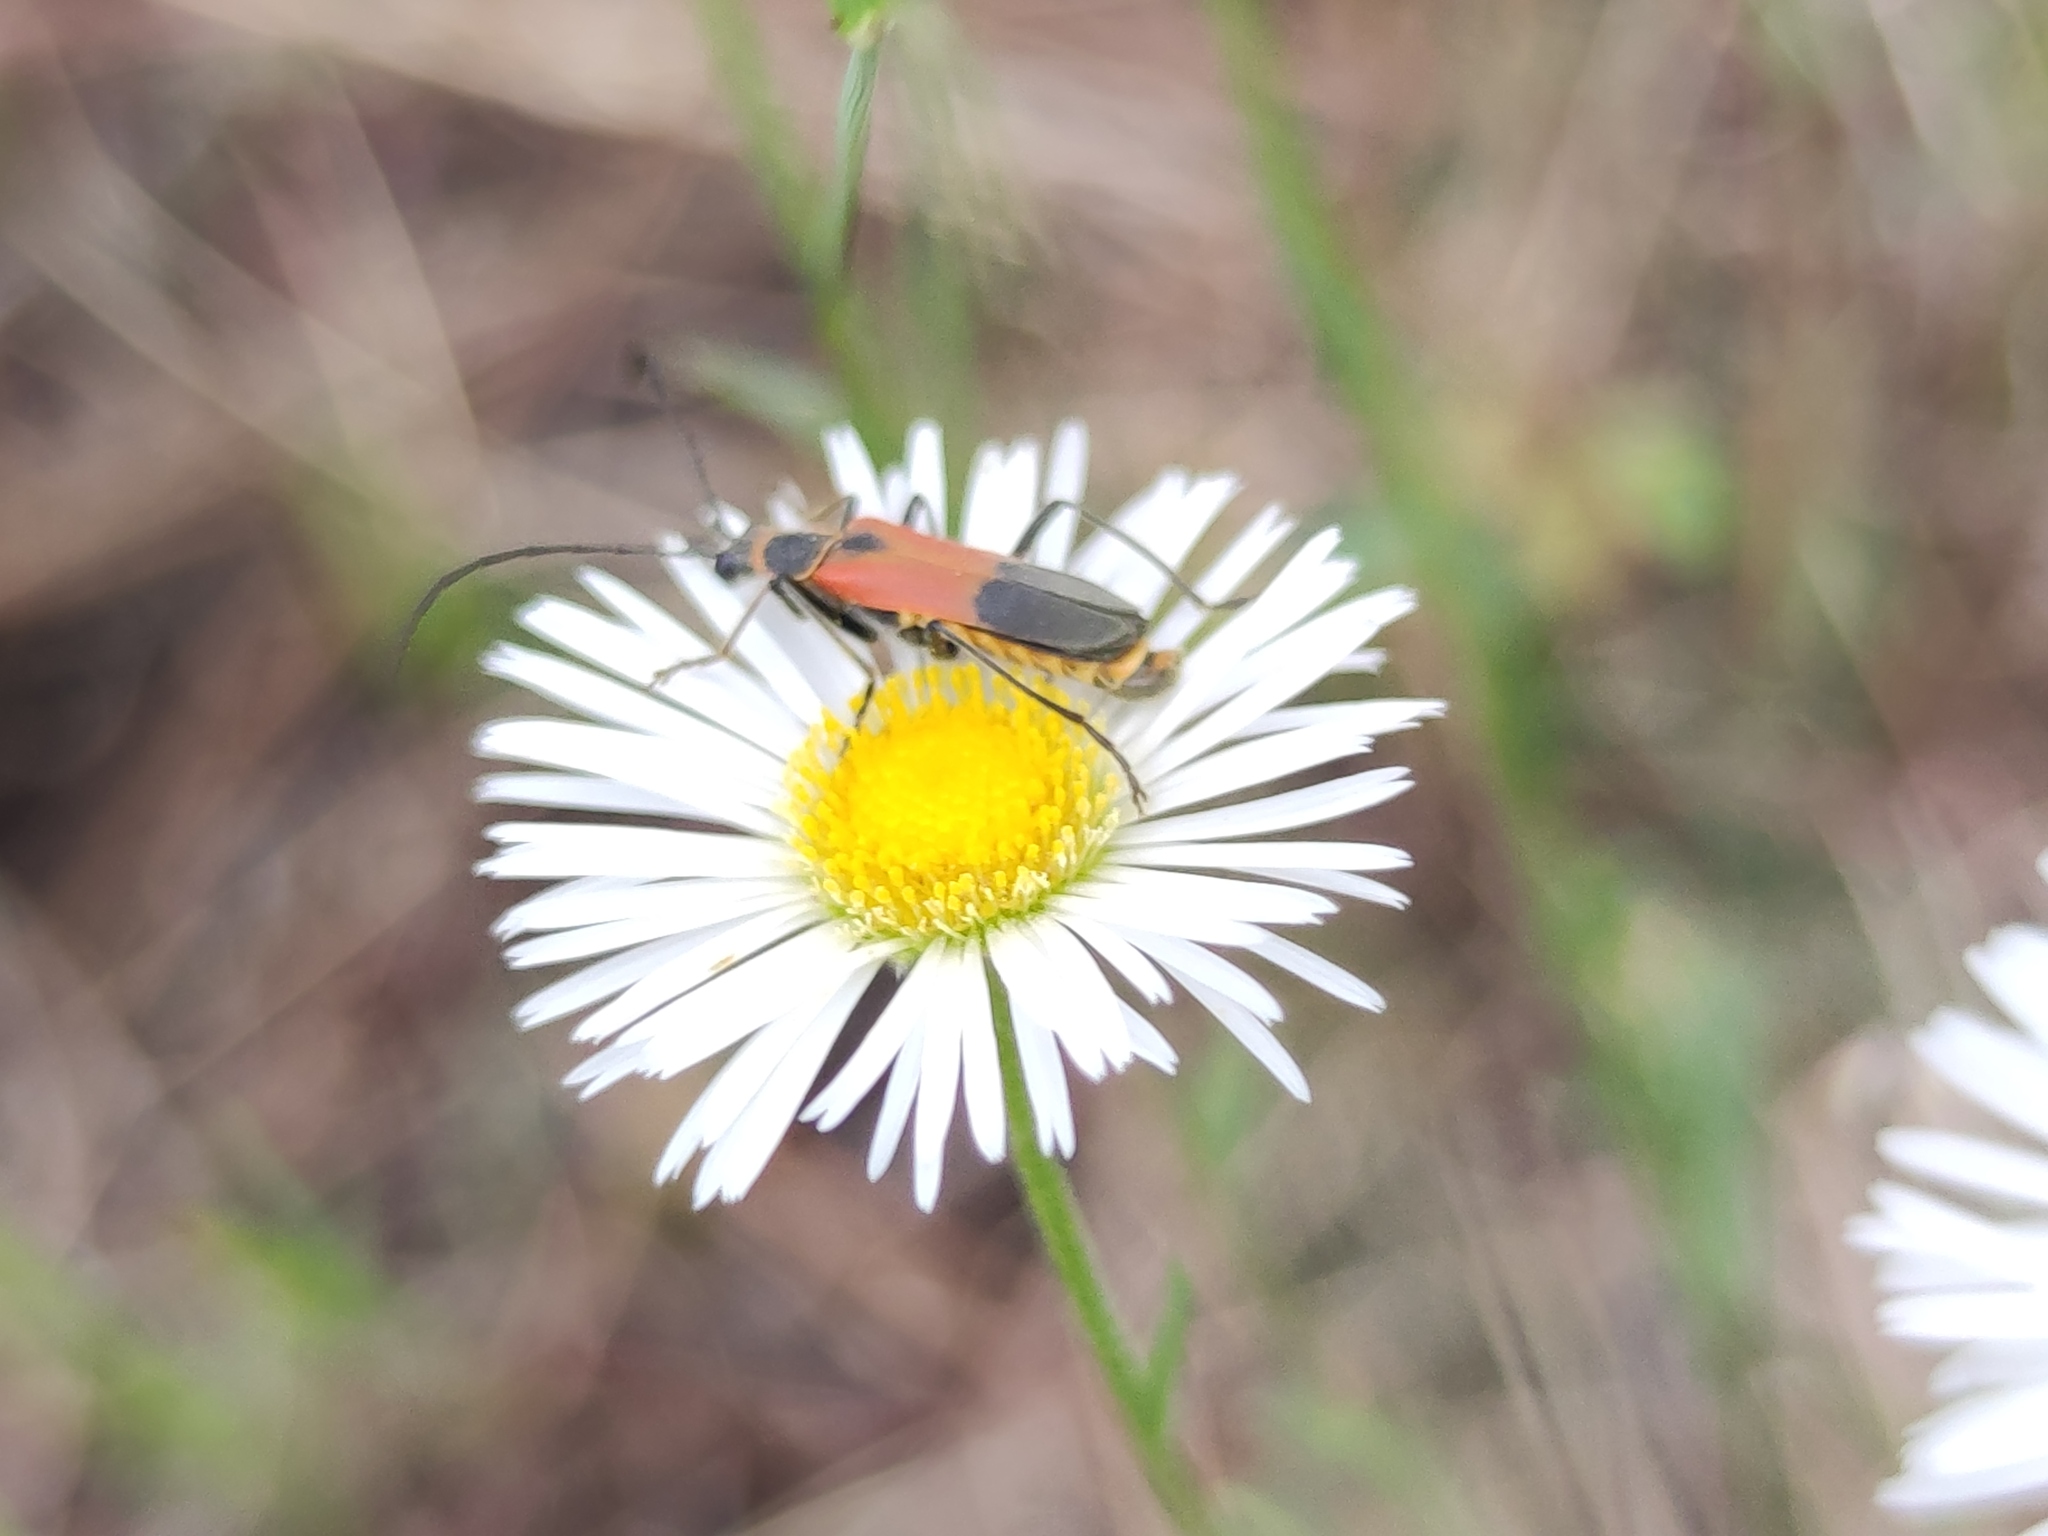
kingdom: Animalia
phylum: Arthropoda
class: Insecta
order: Coleoptera
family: Cantharidae
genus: Chauliognathus
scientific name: Chauliognathus limbicollis
